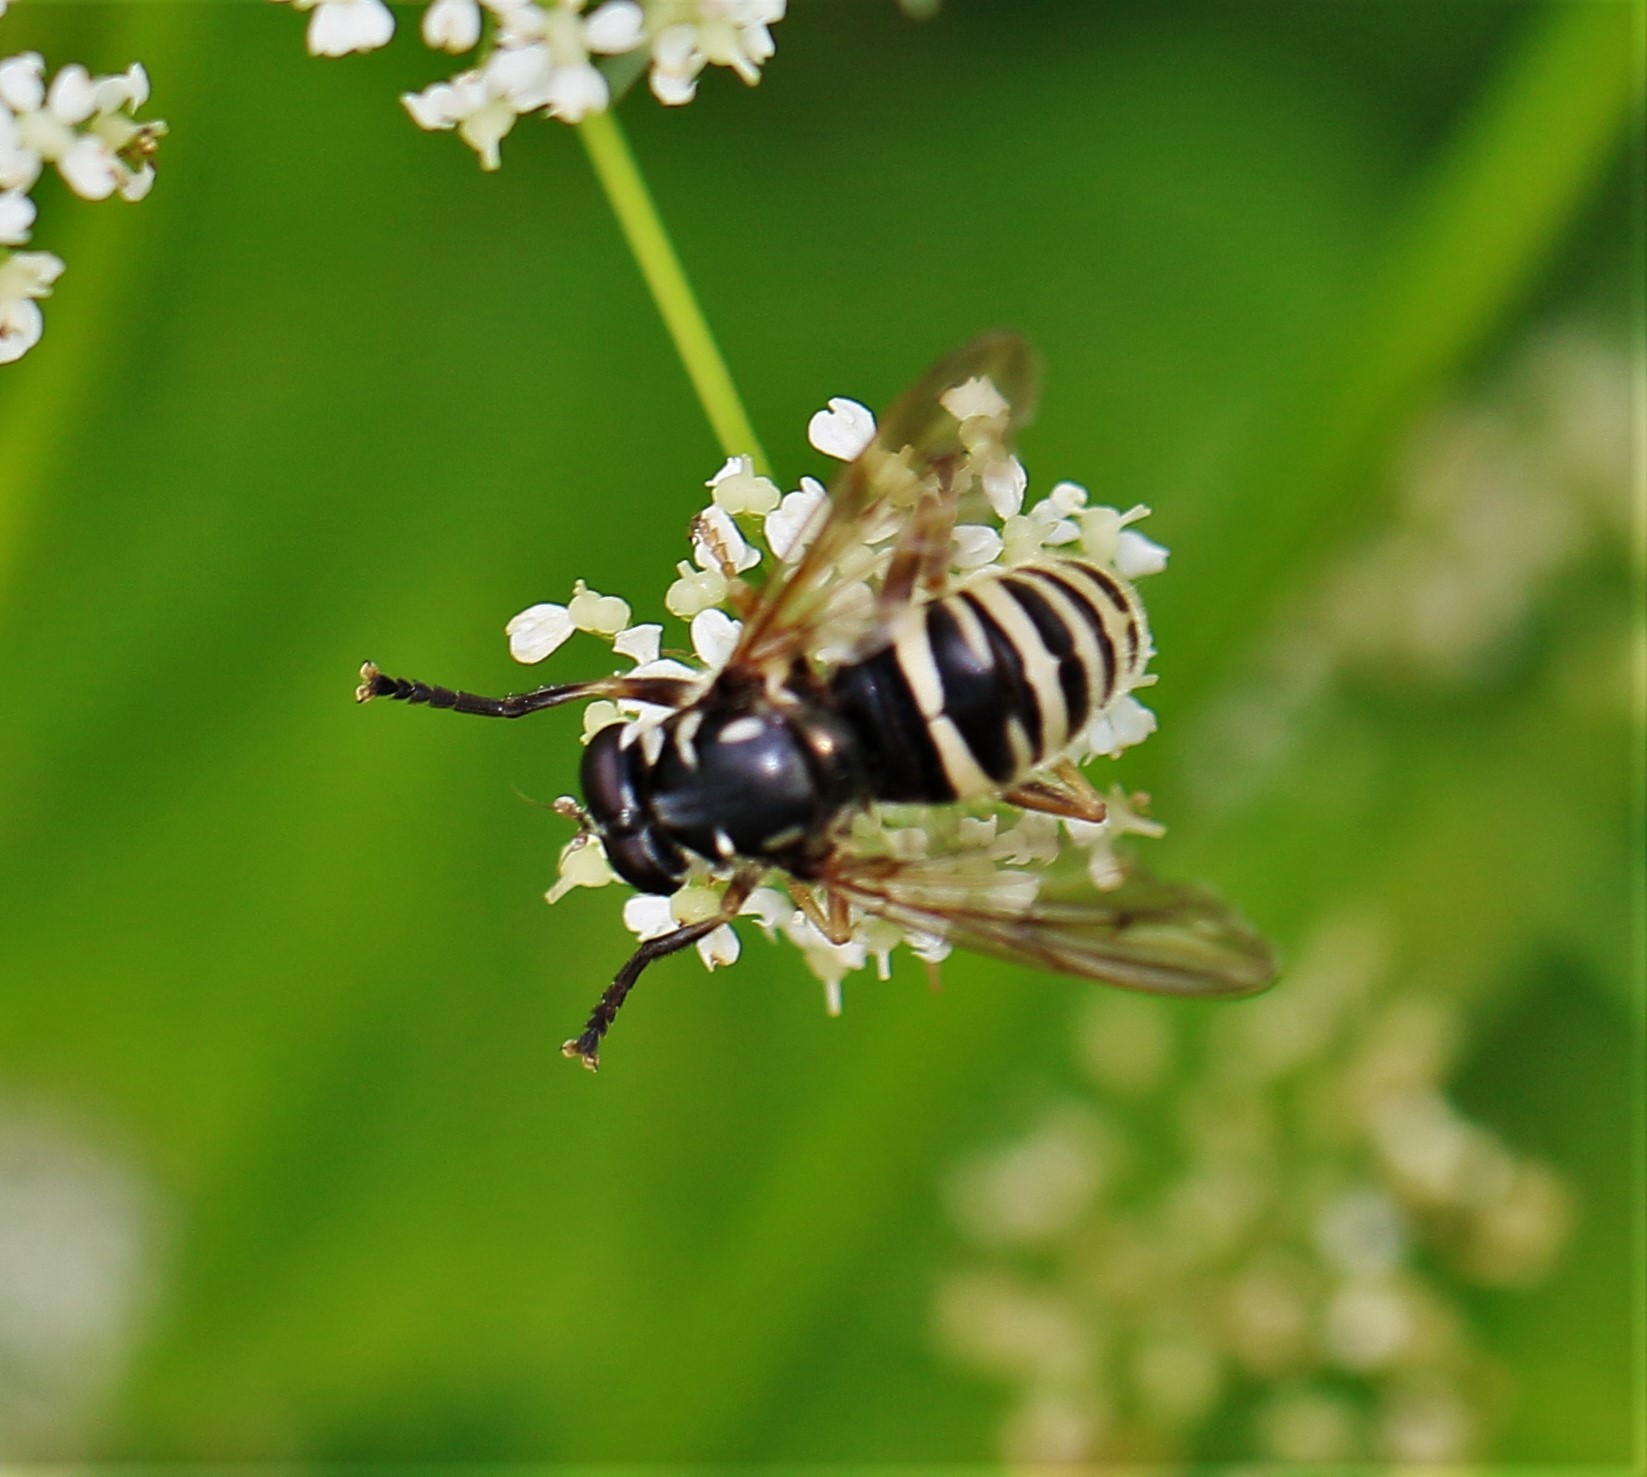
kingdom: Animalia
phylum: Arthropoda
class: Insecta
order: Diptera
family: Syrphidae
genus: Temnostoma
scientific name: Temnostoma excentricum
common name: Black-spotted falsehorn
